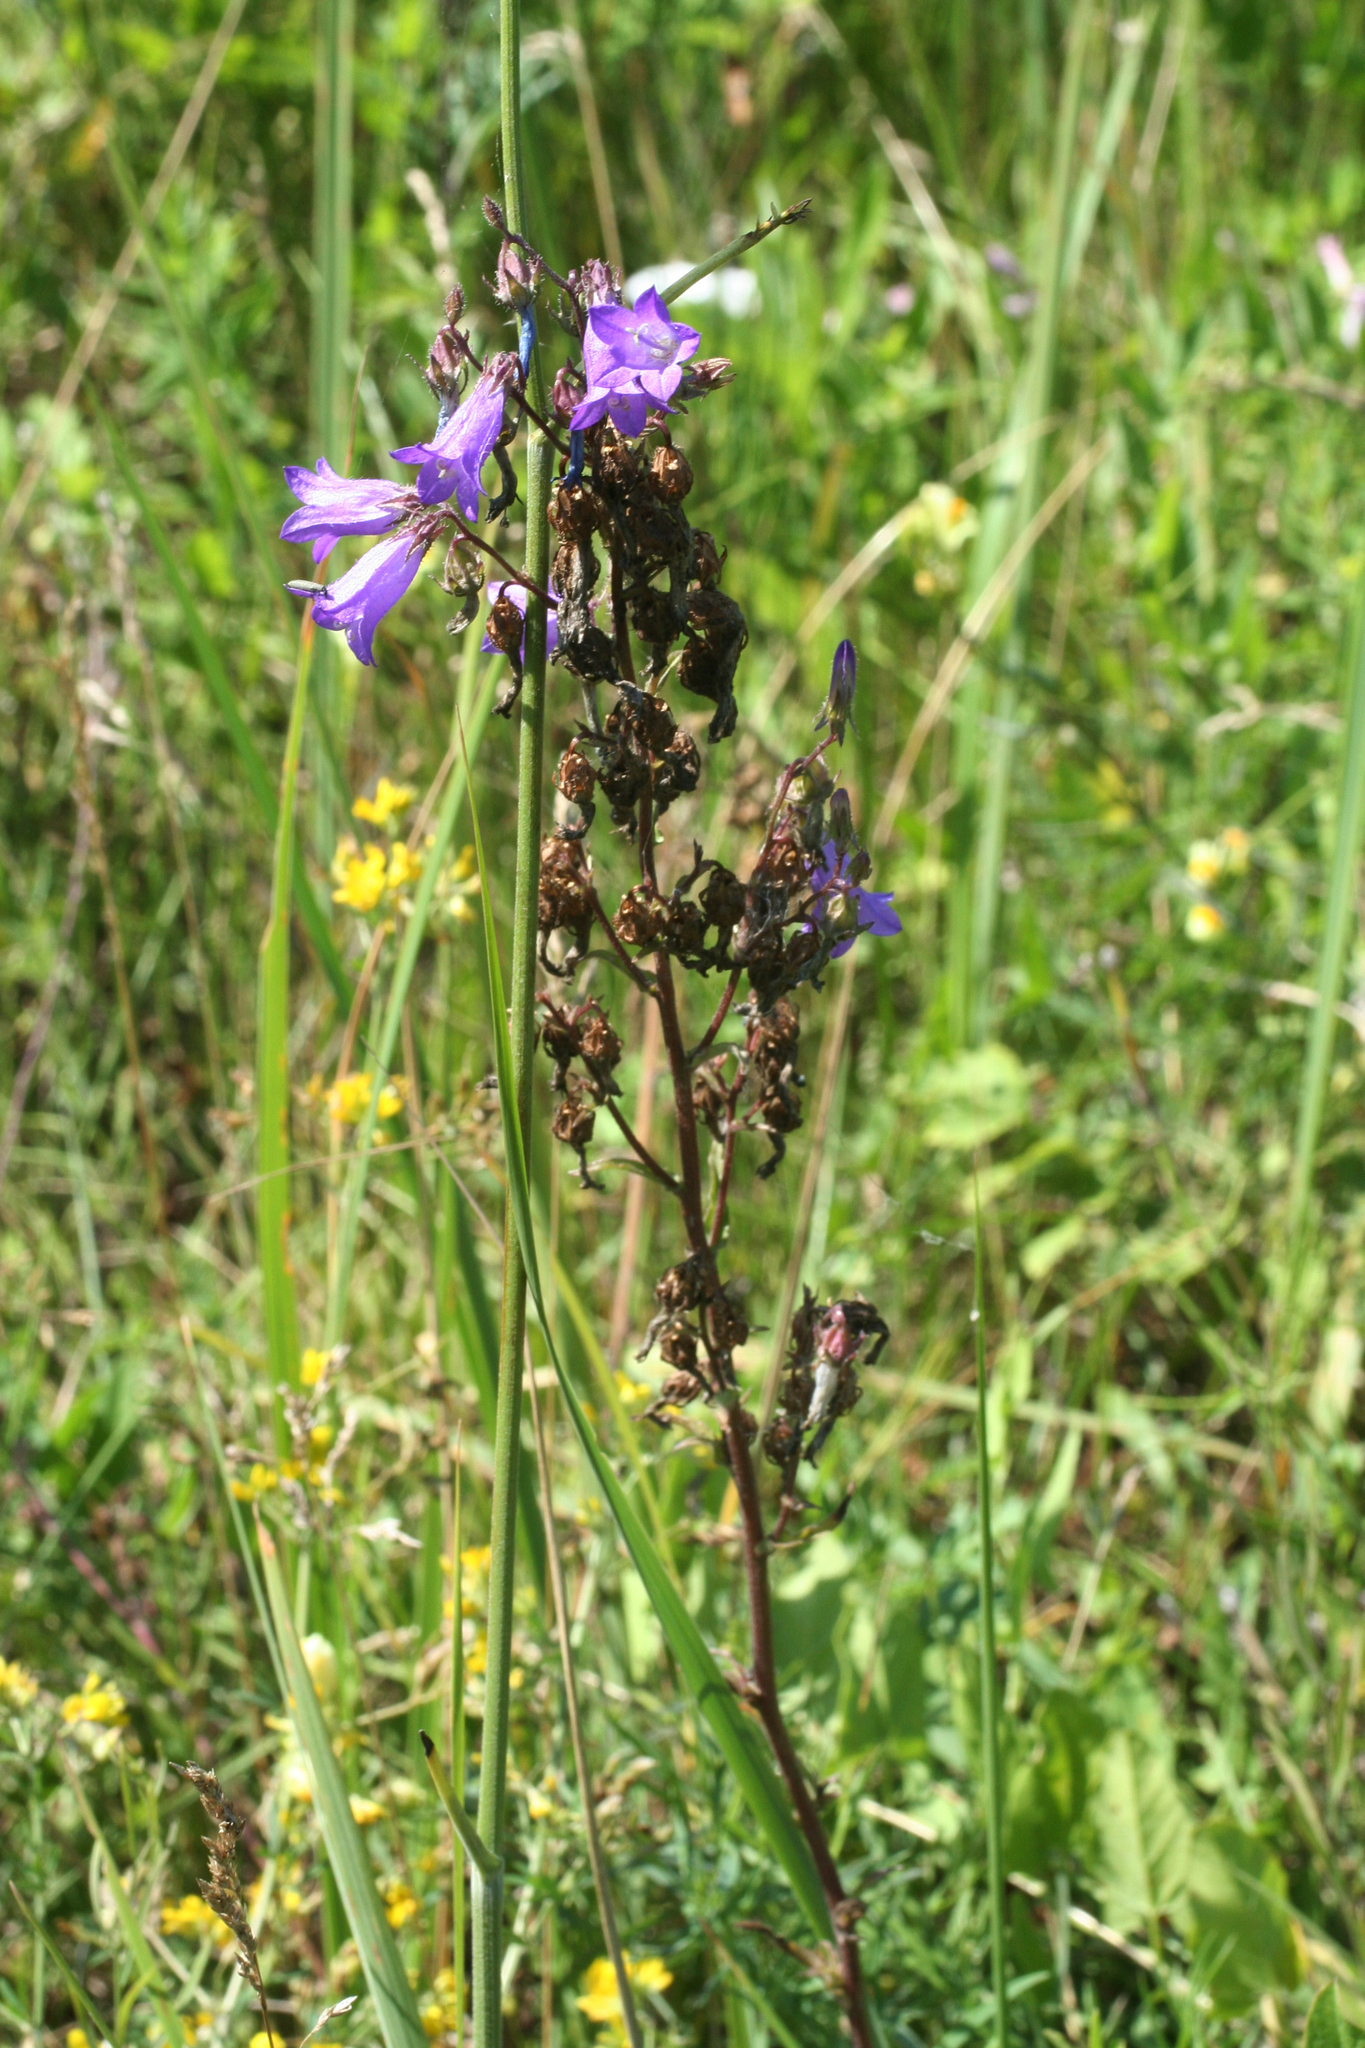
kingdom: Plantae
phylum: Tracheophyta
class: Magnoliopsida
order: Asterales
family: Campanulaceae
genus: Campanula
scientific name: Campanula sibirica
